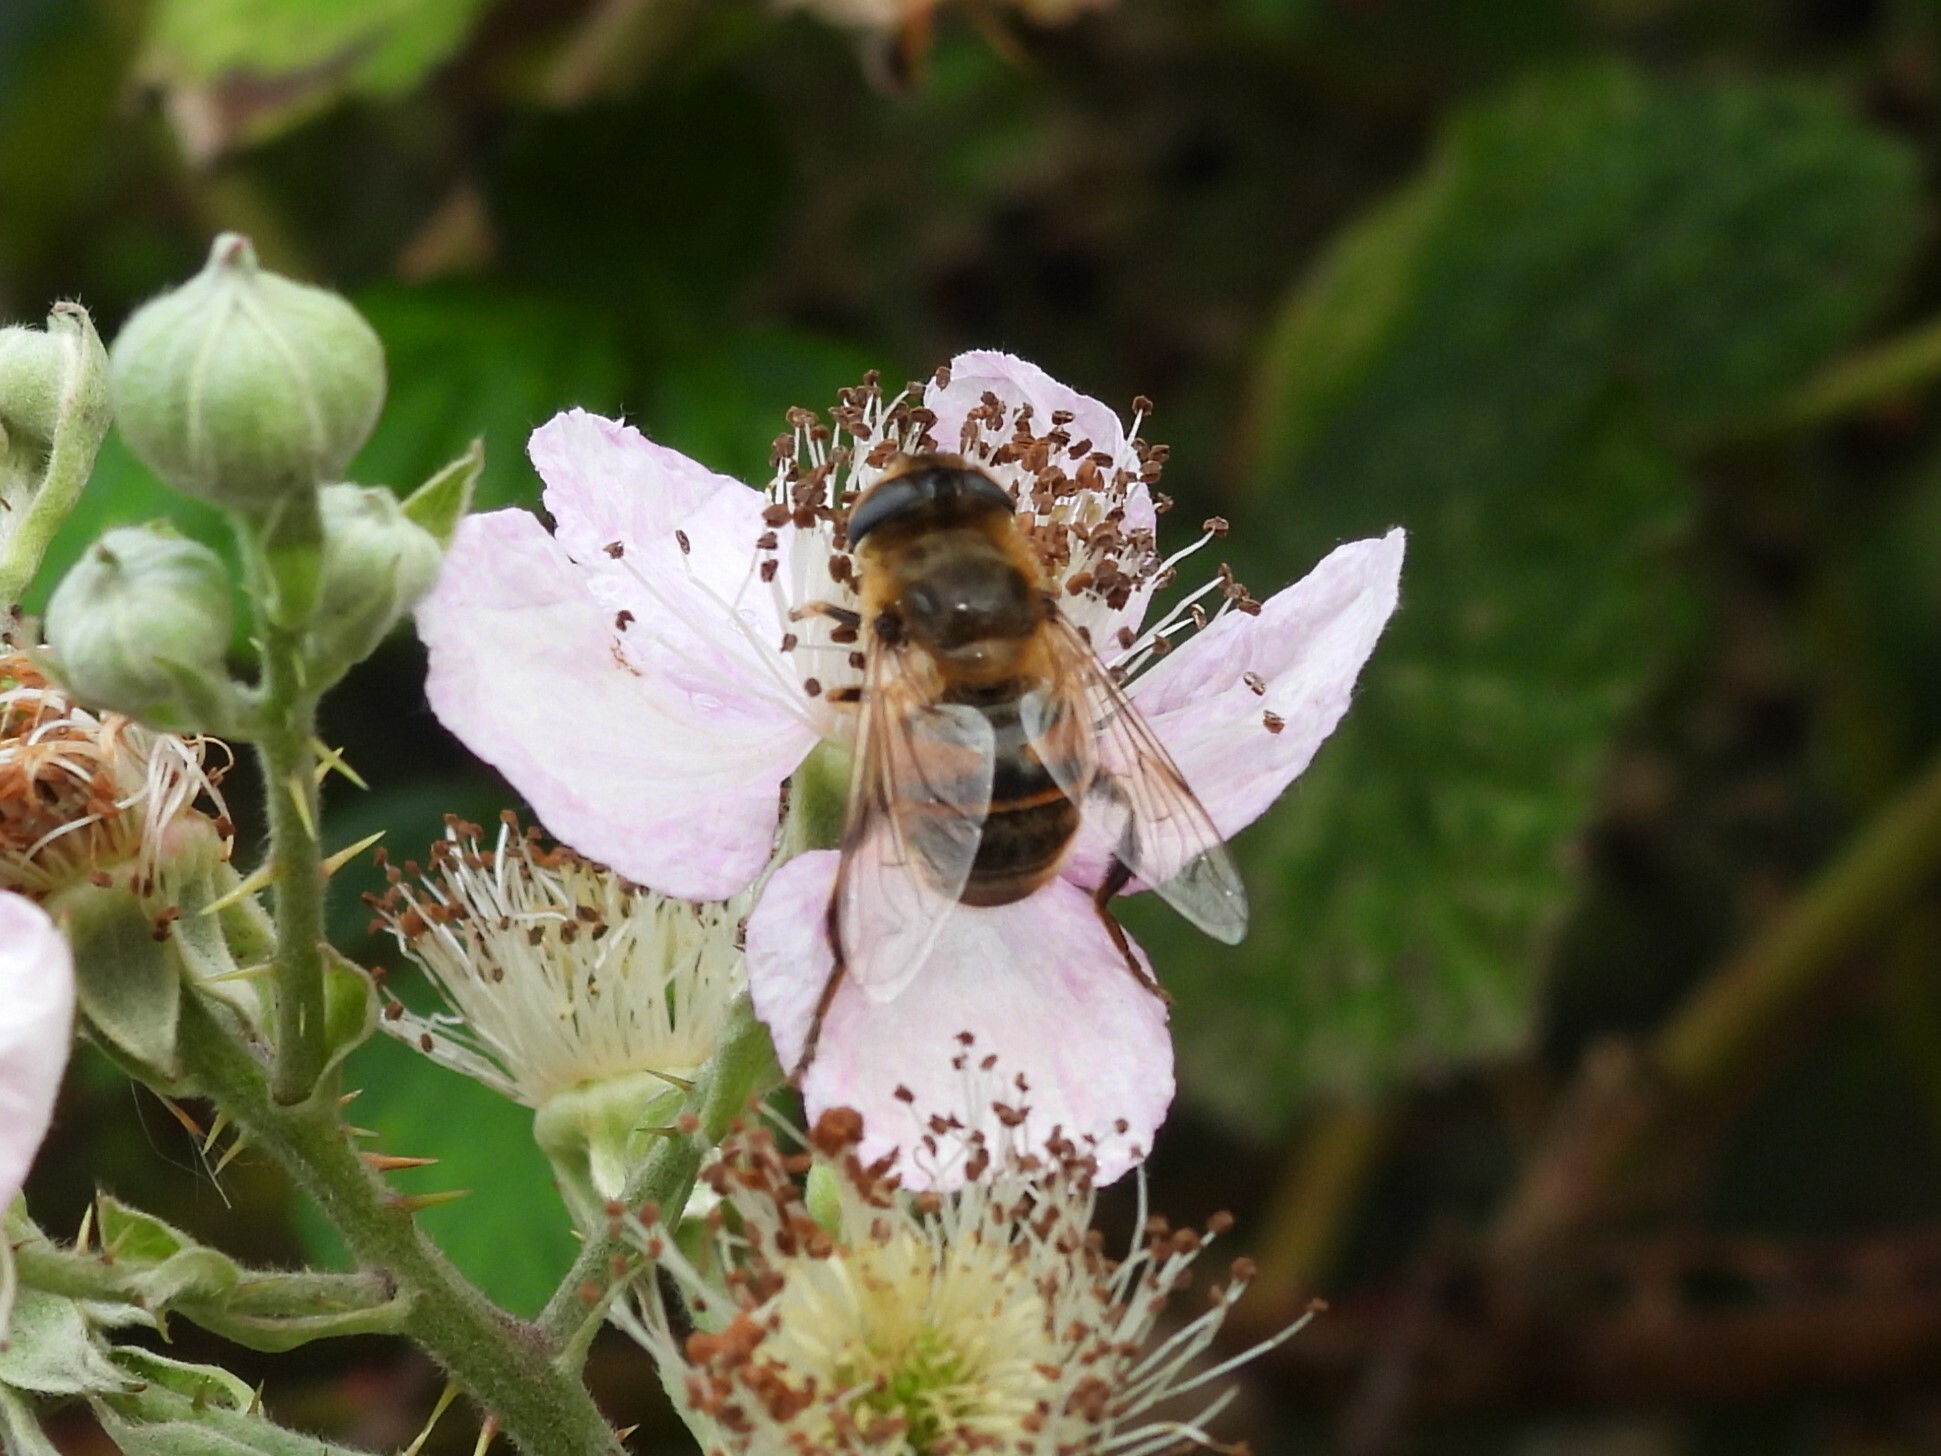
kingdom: Animalia
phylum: Arthropoda
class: Insecta
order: Diptera
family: Syrphidae
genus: Eristalis
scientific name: Eristalis tenax
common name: Drone fly
